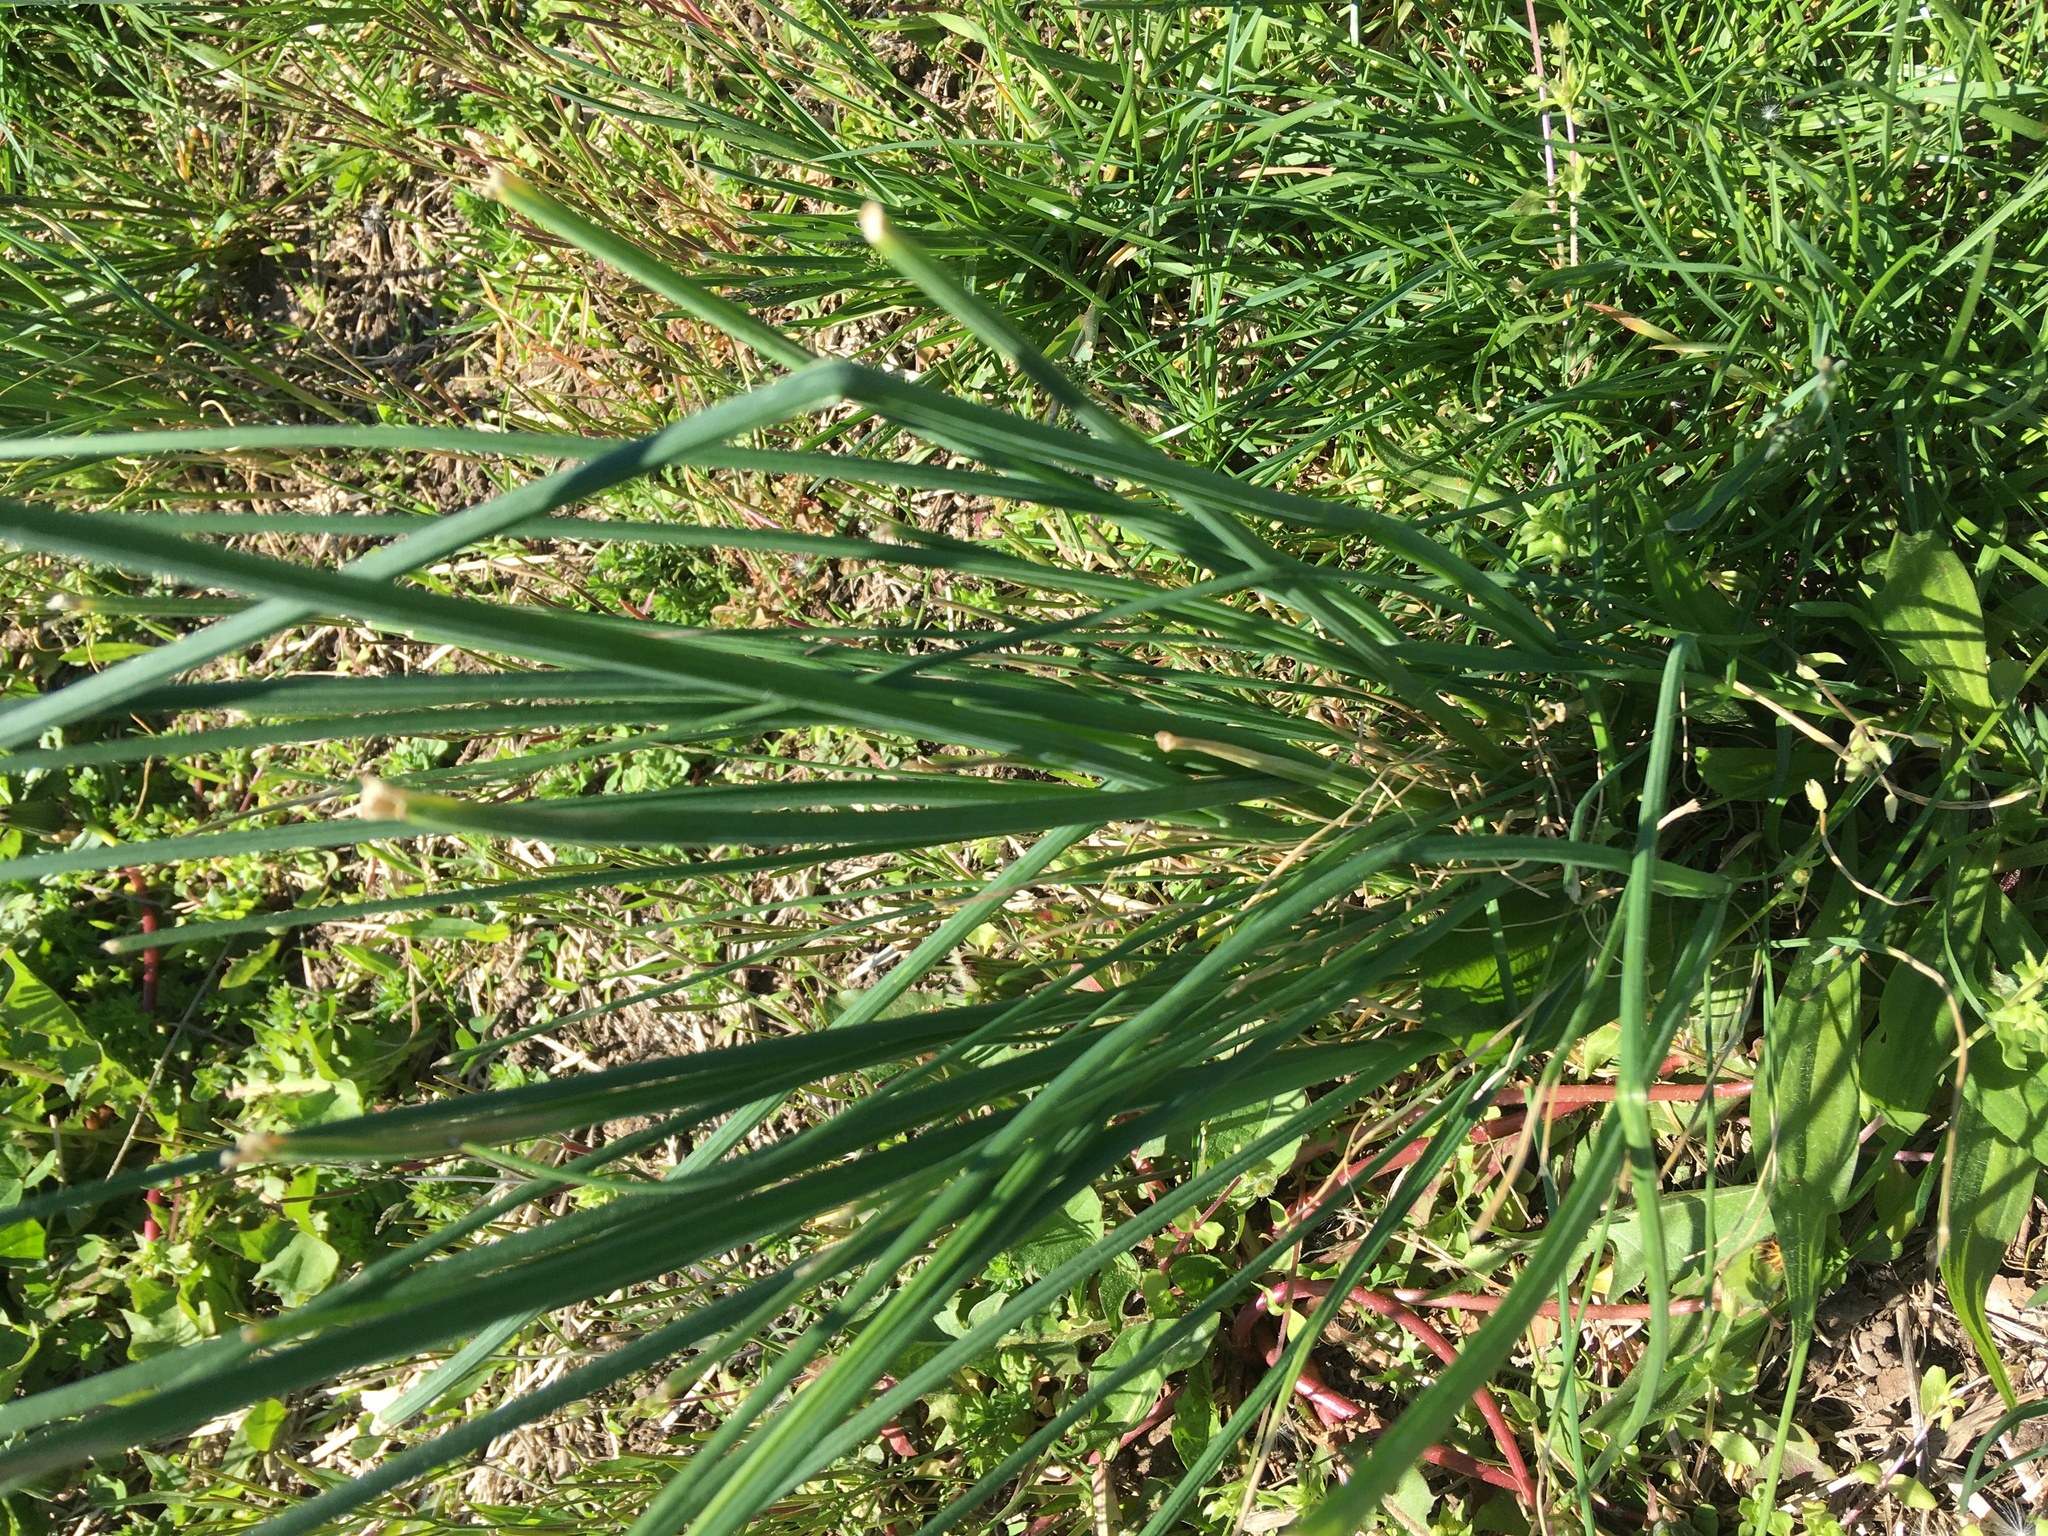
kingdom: Plantae
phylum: Tracheophyta
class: Liliopsida
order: Asparagales
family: Amaryllidaceae
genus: Allium
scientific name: Allium canadense
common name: Meadow garlic
